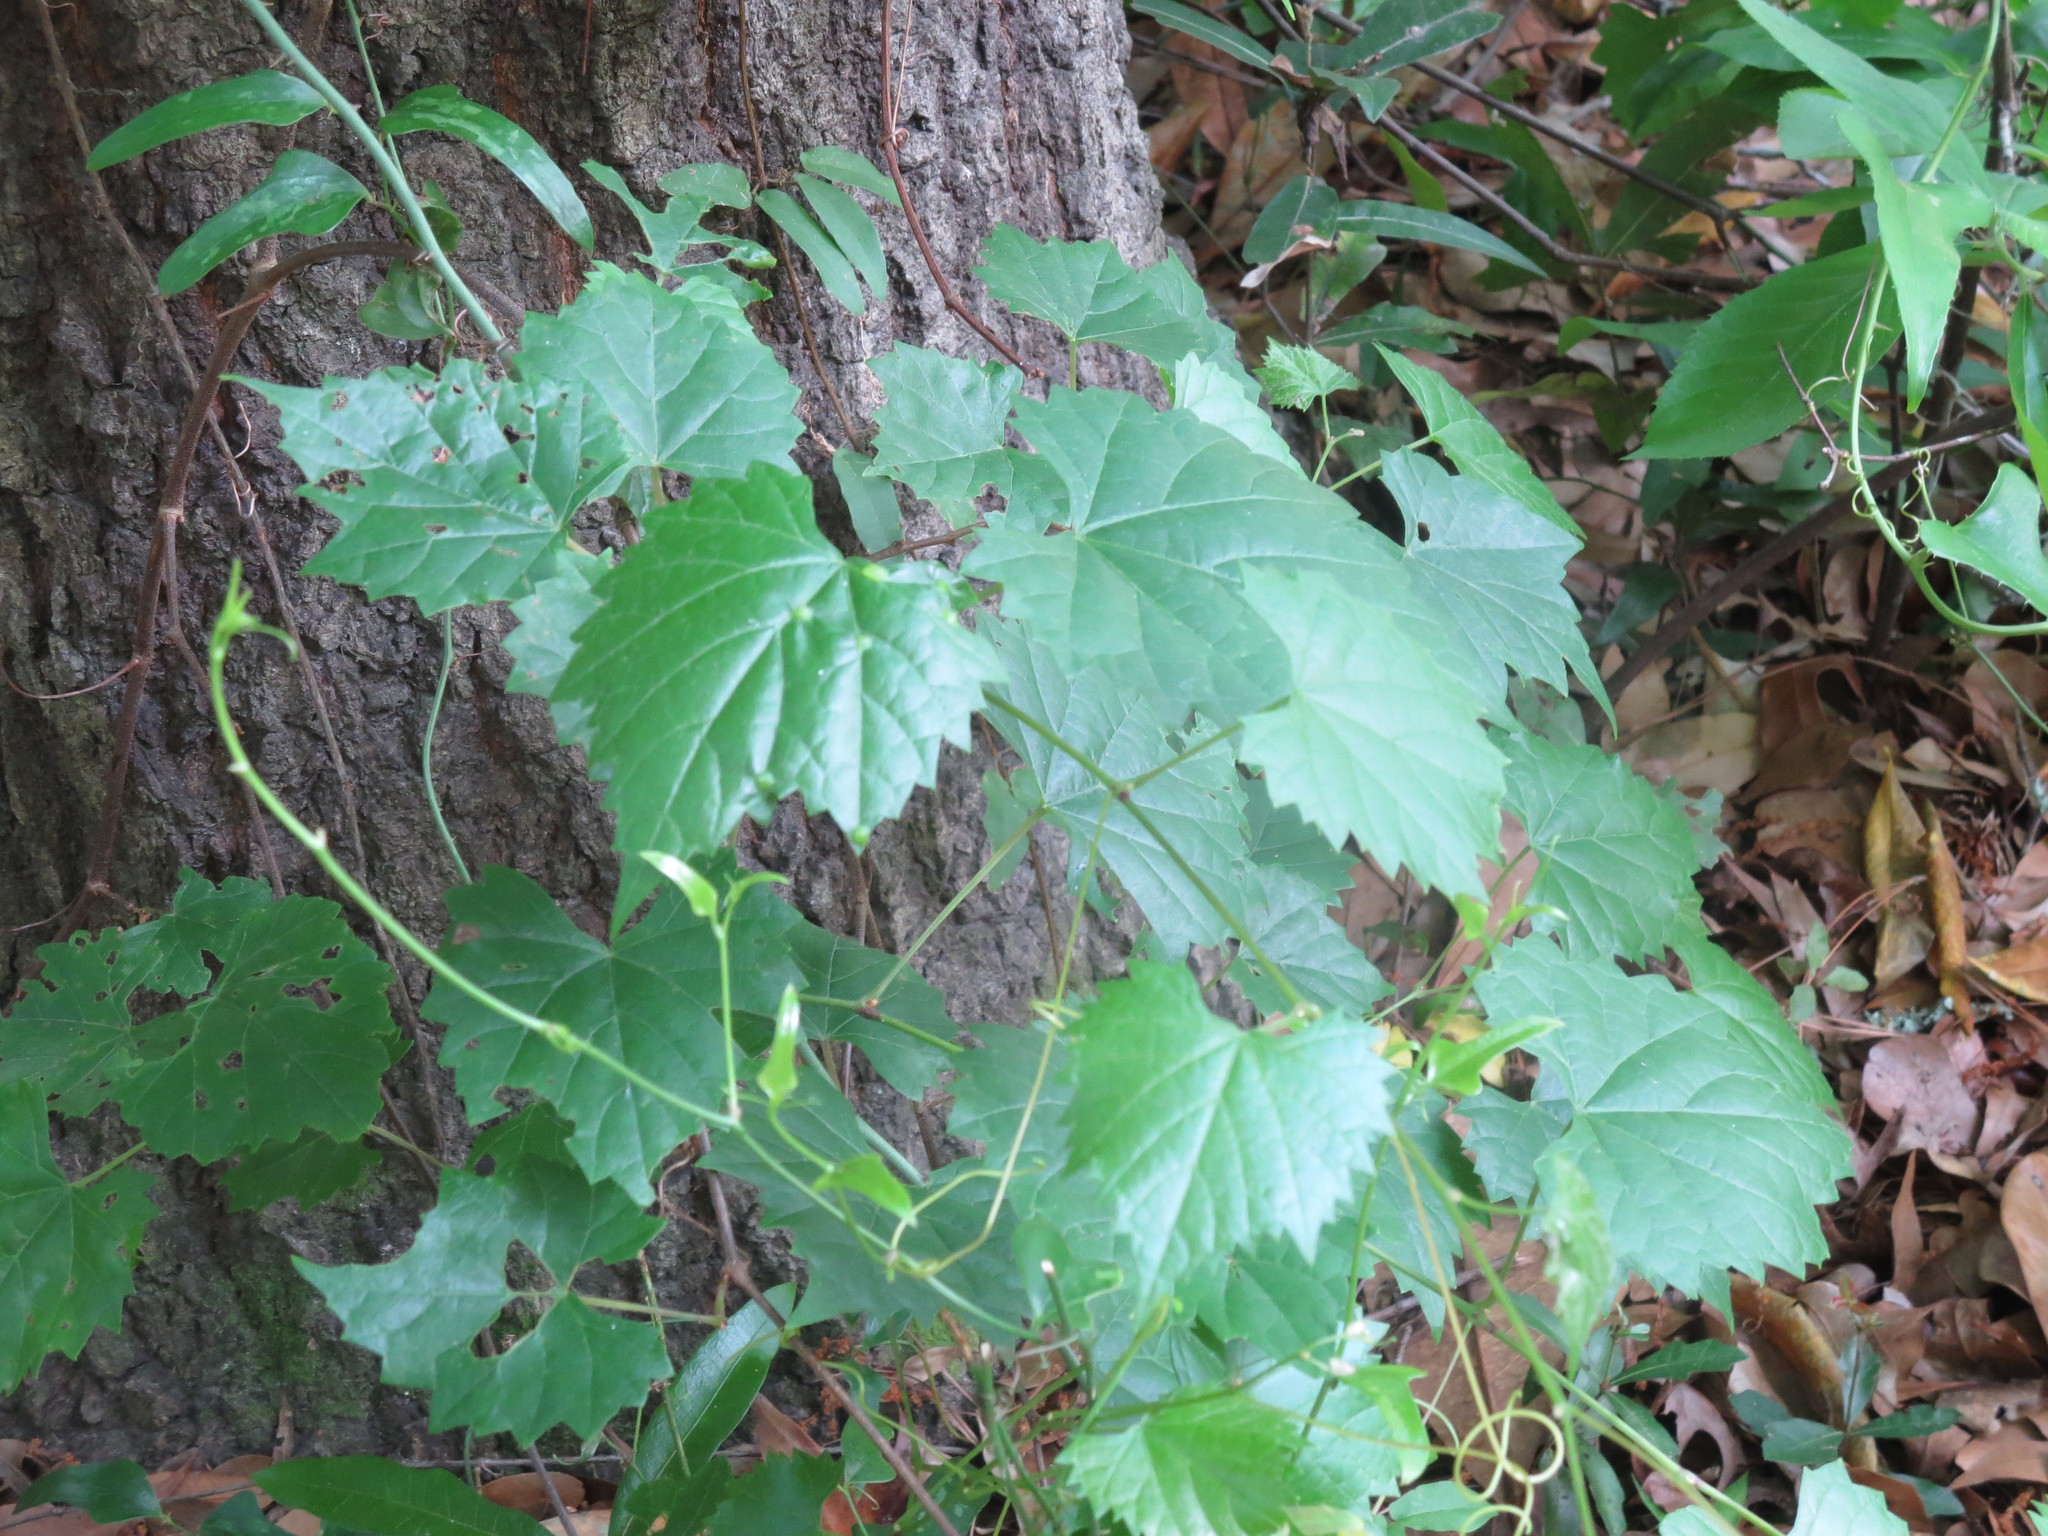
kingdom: Plantae
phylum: Tracheophyta
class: Magnoliopsida
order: Vitales
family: Vitaceae
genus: Vitis
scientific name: Vitis rotundifolia
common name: Muscadine grape
